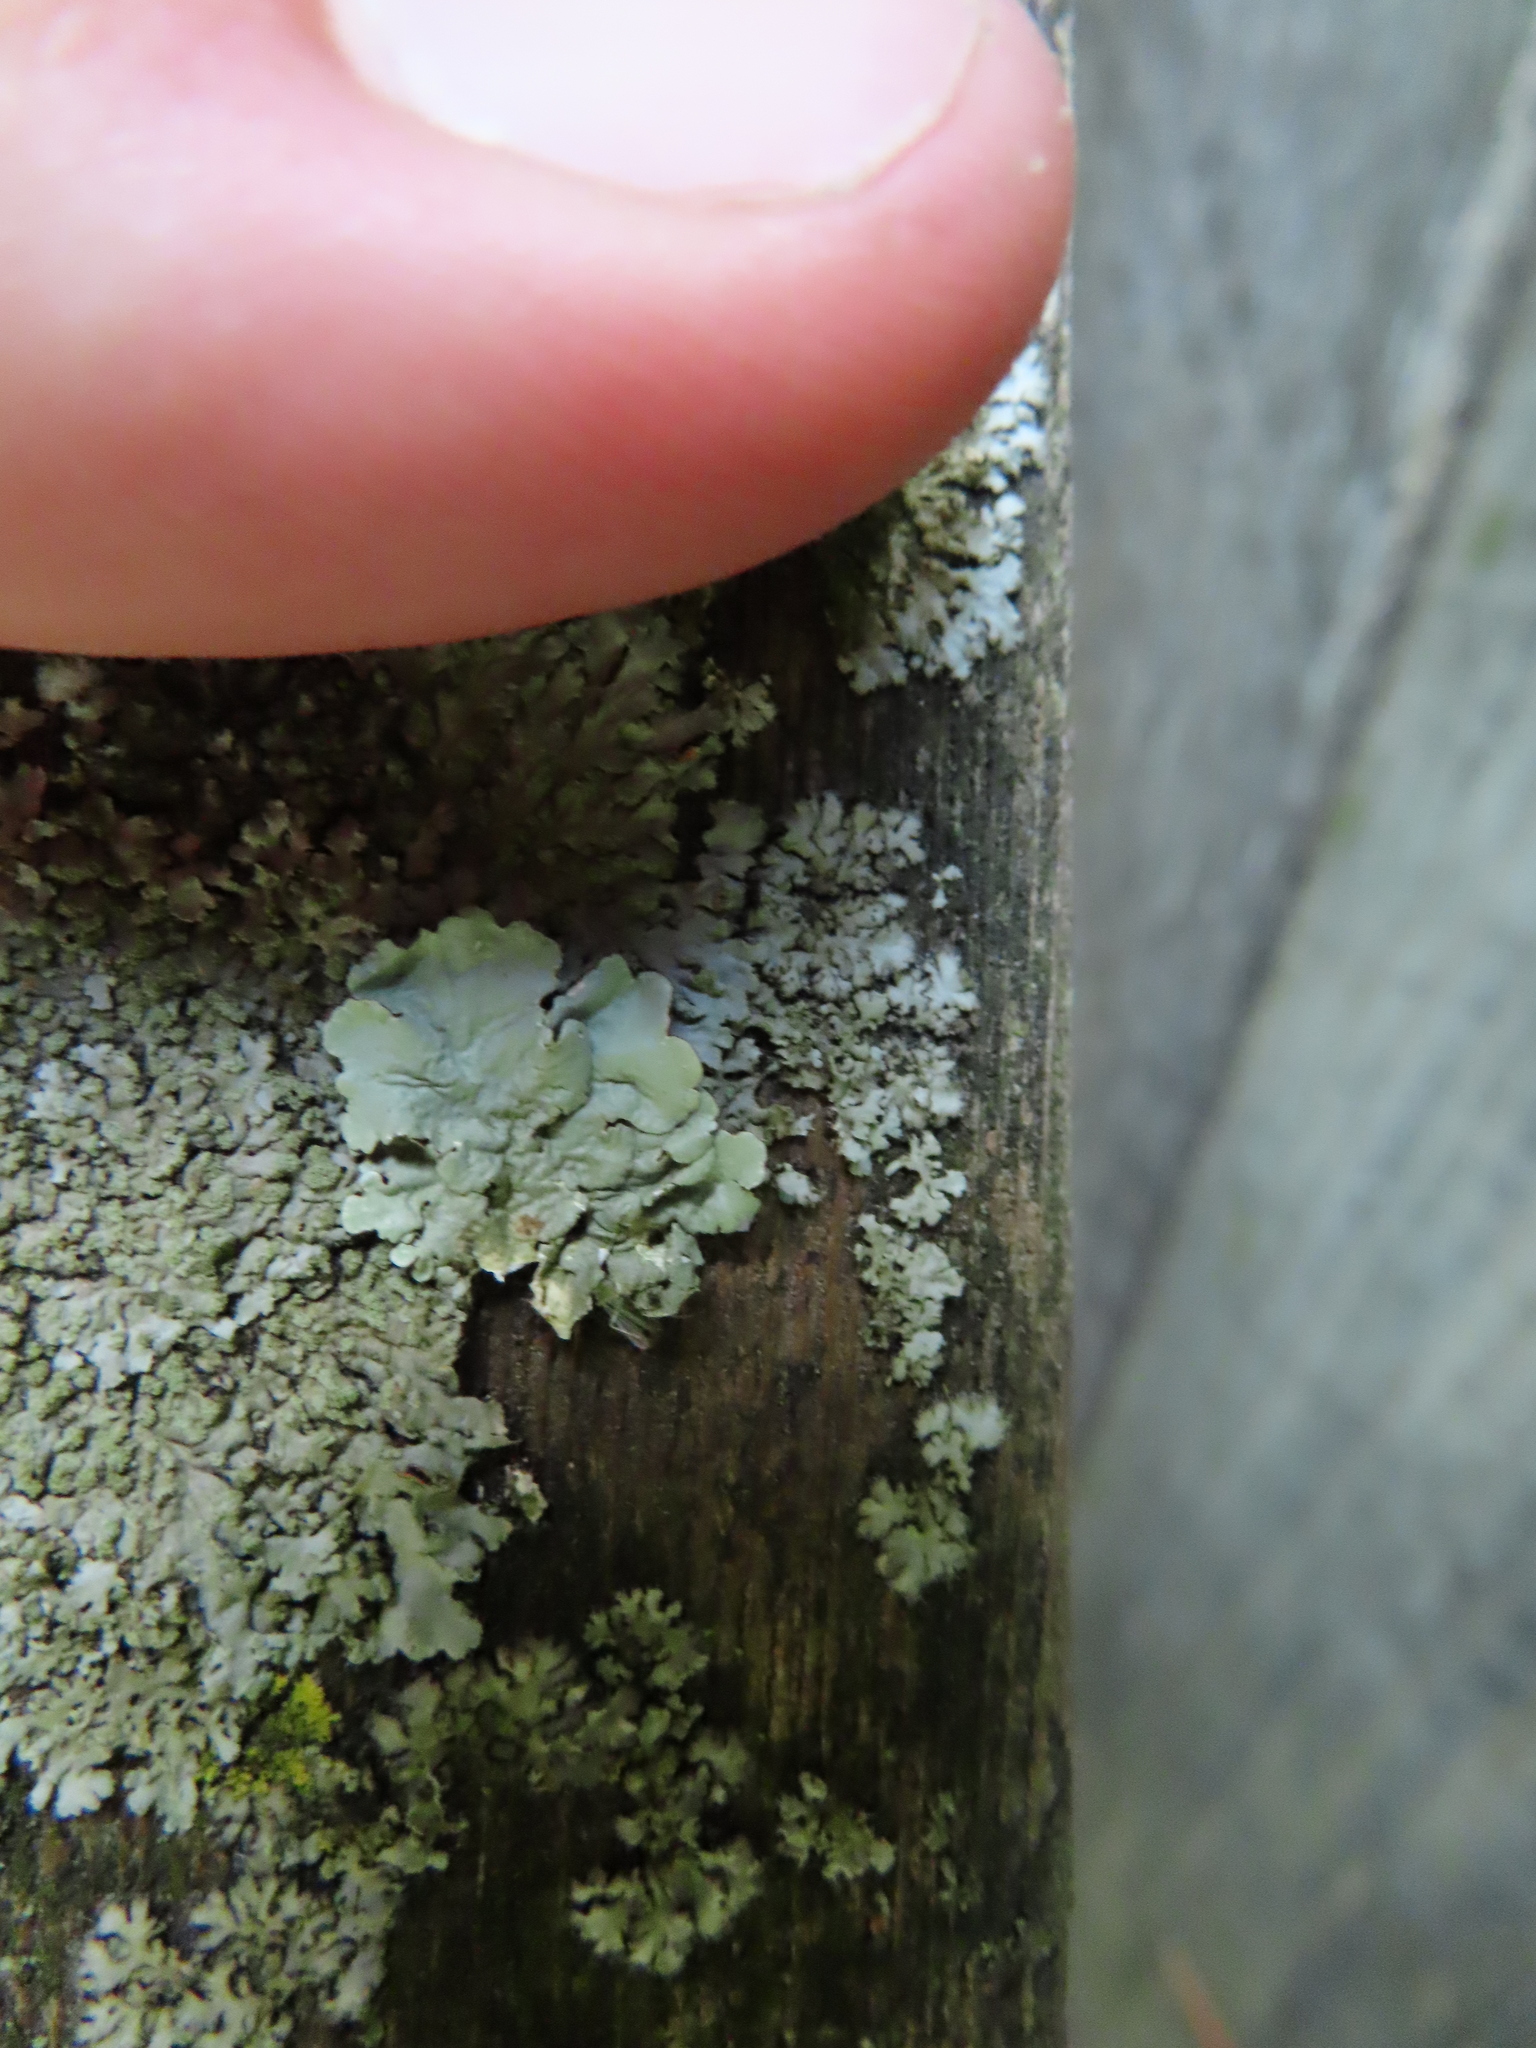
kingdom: Fungi
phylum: Ascomycota
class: Lecanoromycetes
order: Lecanorales
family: Parmeliaceae
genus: Flavoparmelia
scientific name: Flavoparmelia caperata
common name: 40-mile per hour lichen
